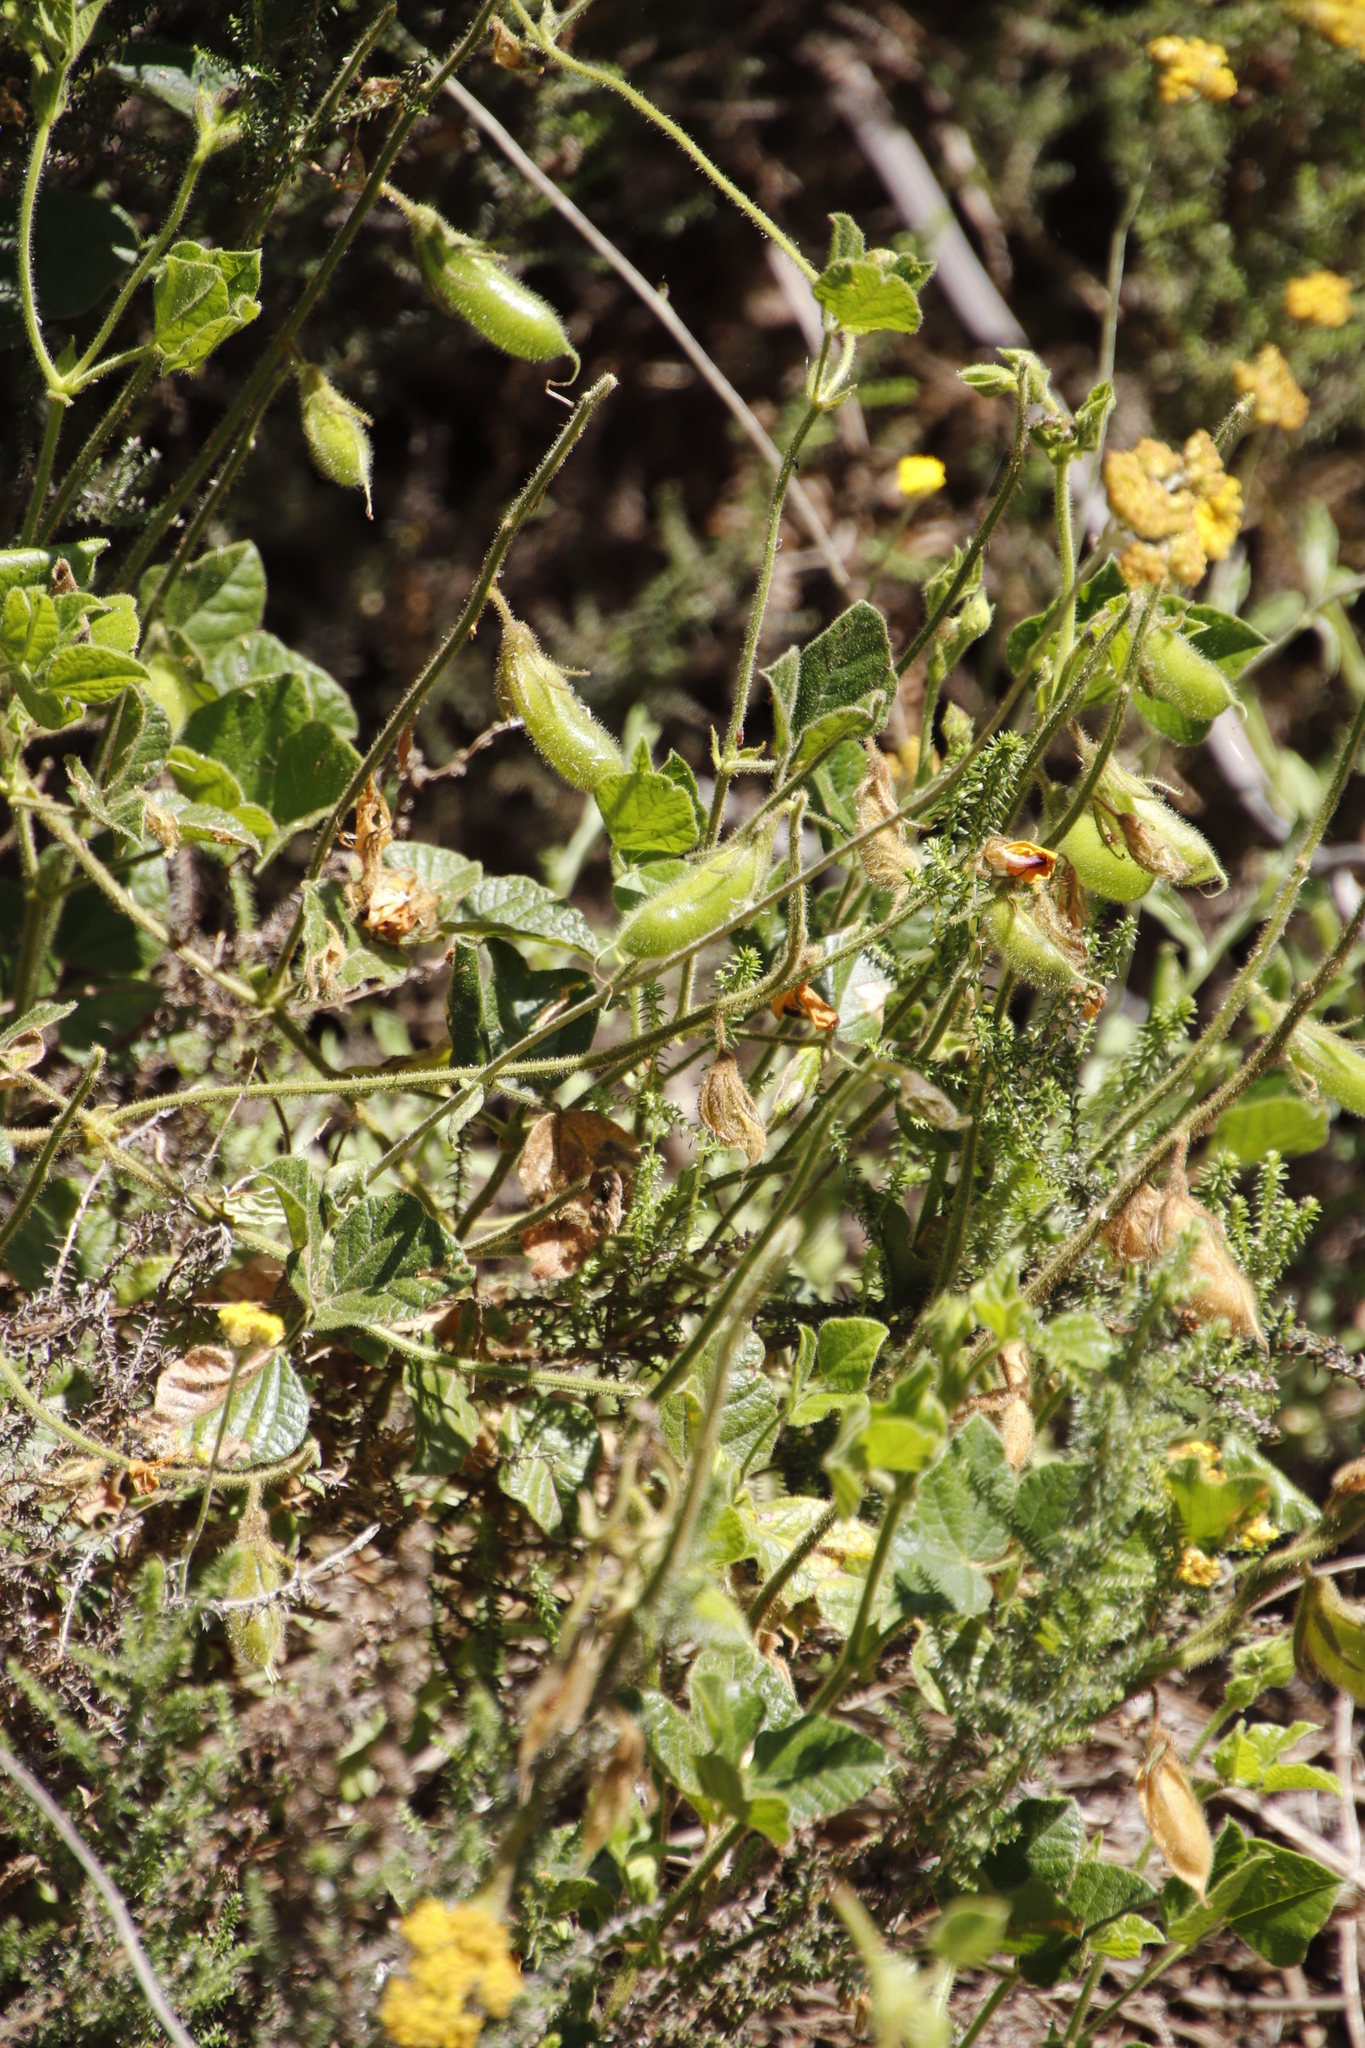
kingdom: Plantae
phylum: Tracheophyta
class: Magnoliopsida
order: Fabales
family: Fabaceae
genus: Bolusafra
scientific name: Bolusafra bituminosa
